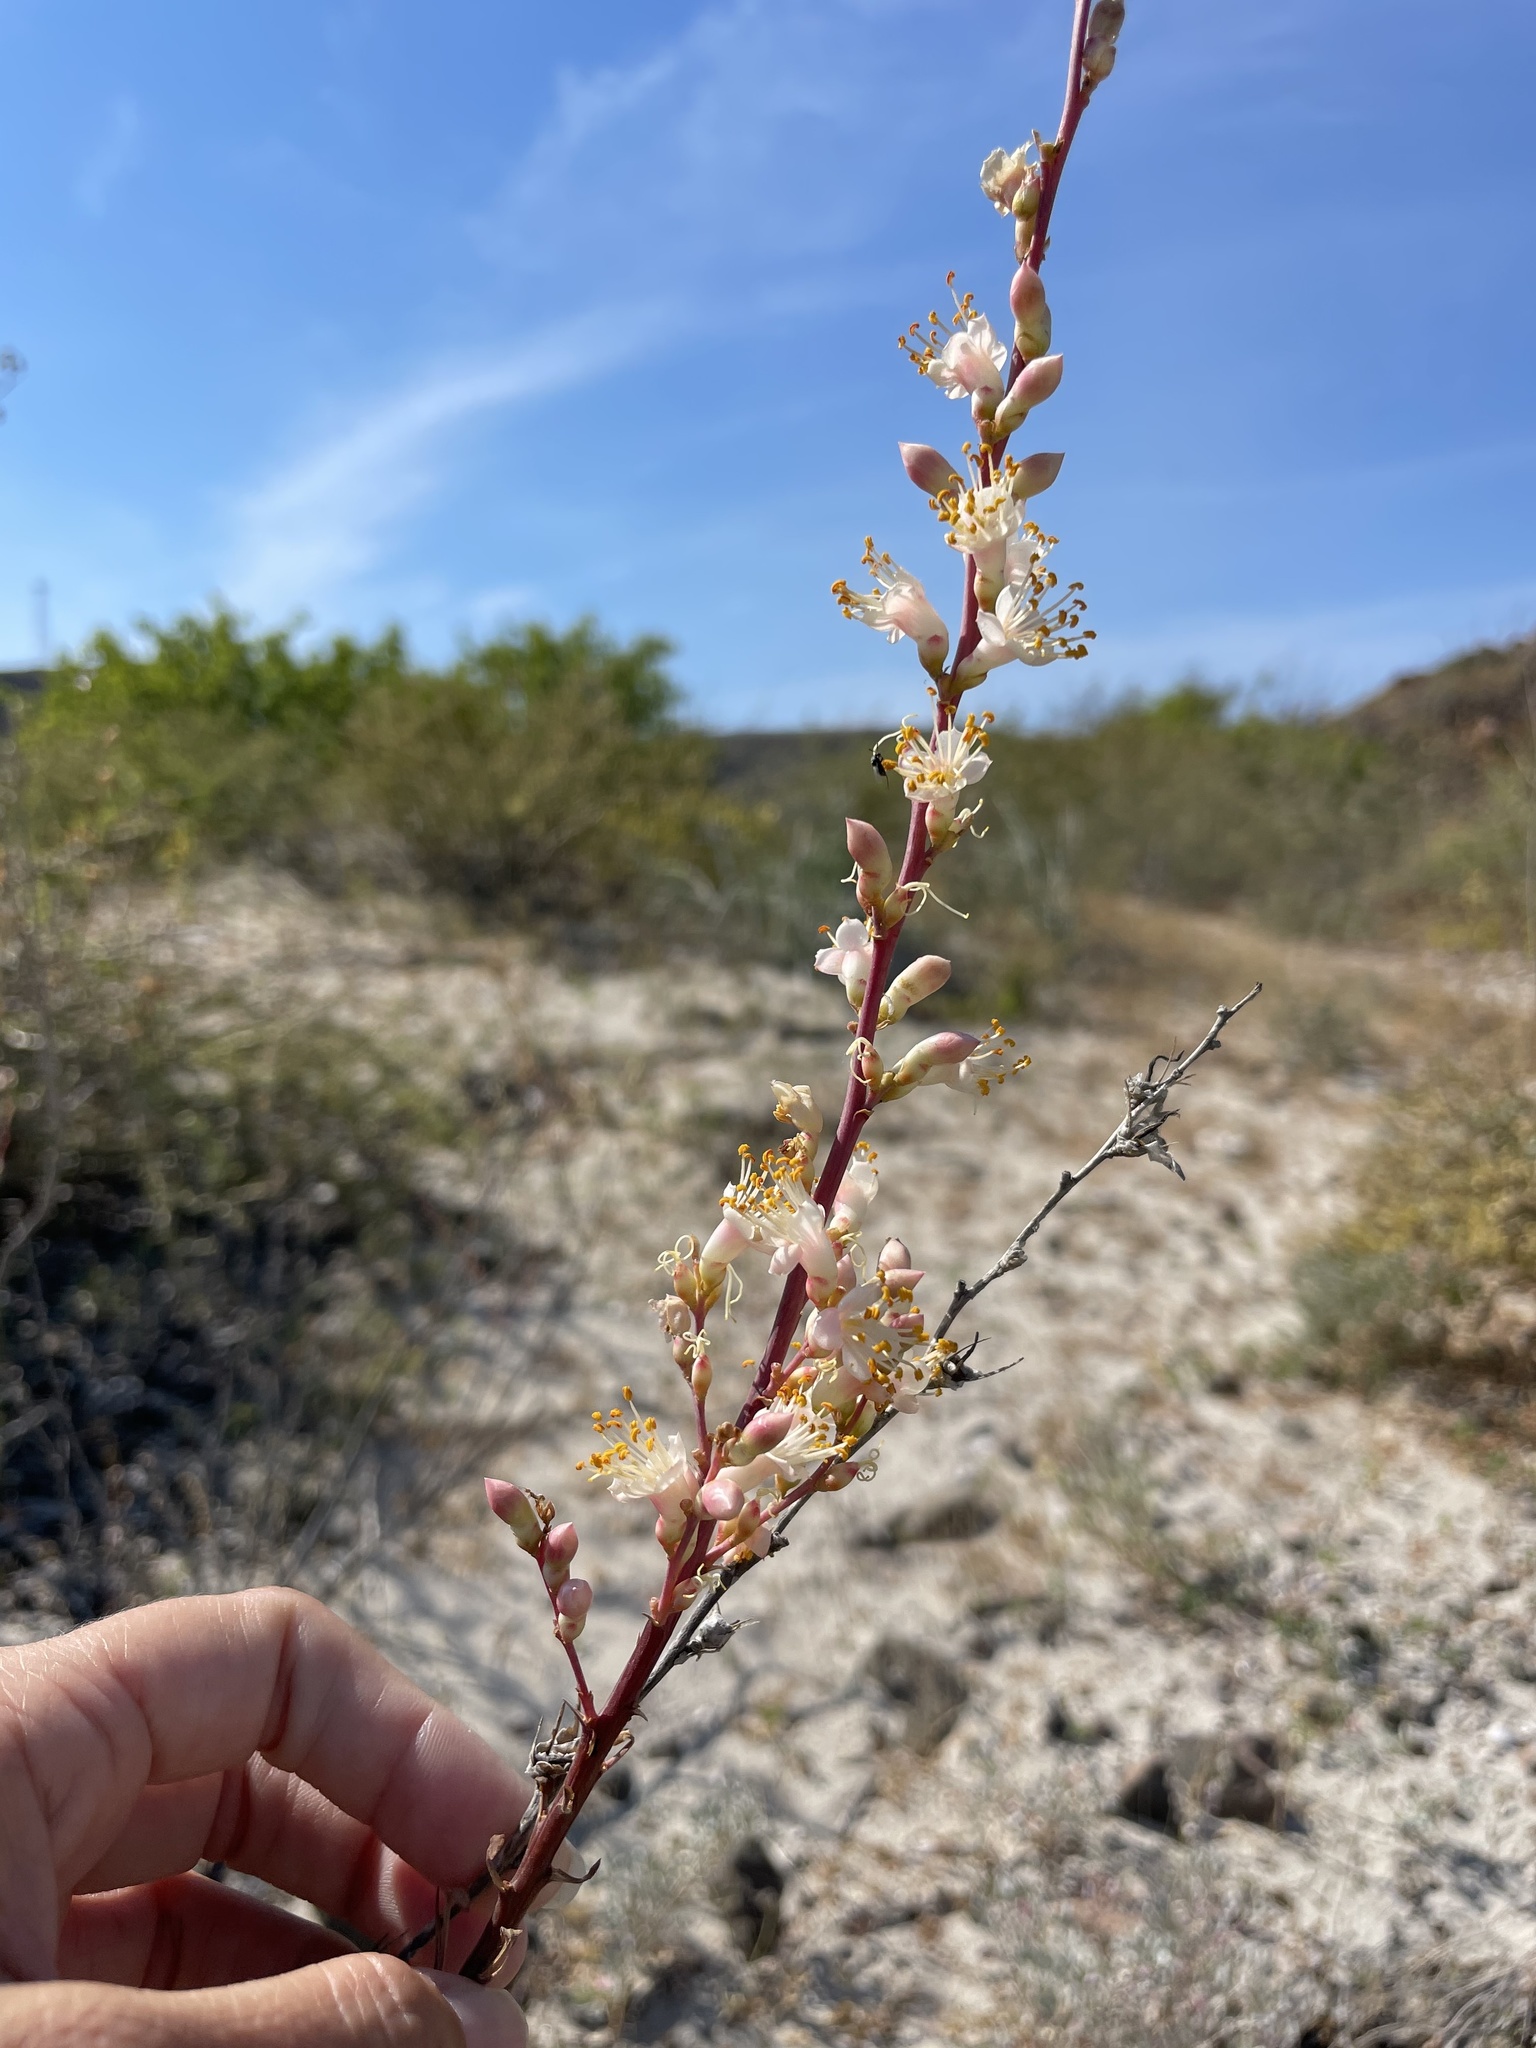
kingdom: Plantae
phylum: Tracheophyta
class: Magnoliopsida
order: Ericales
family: Fouquieriaceae
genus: Fouquieria
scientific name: Fouquieria burragei
